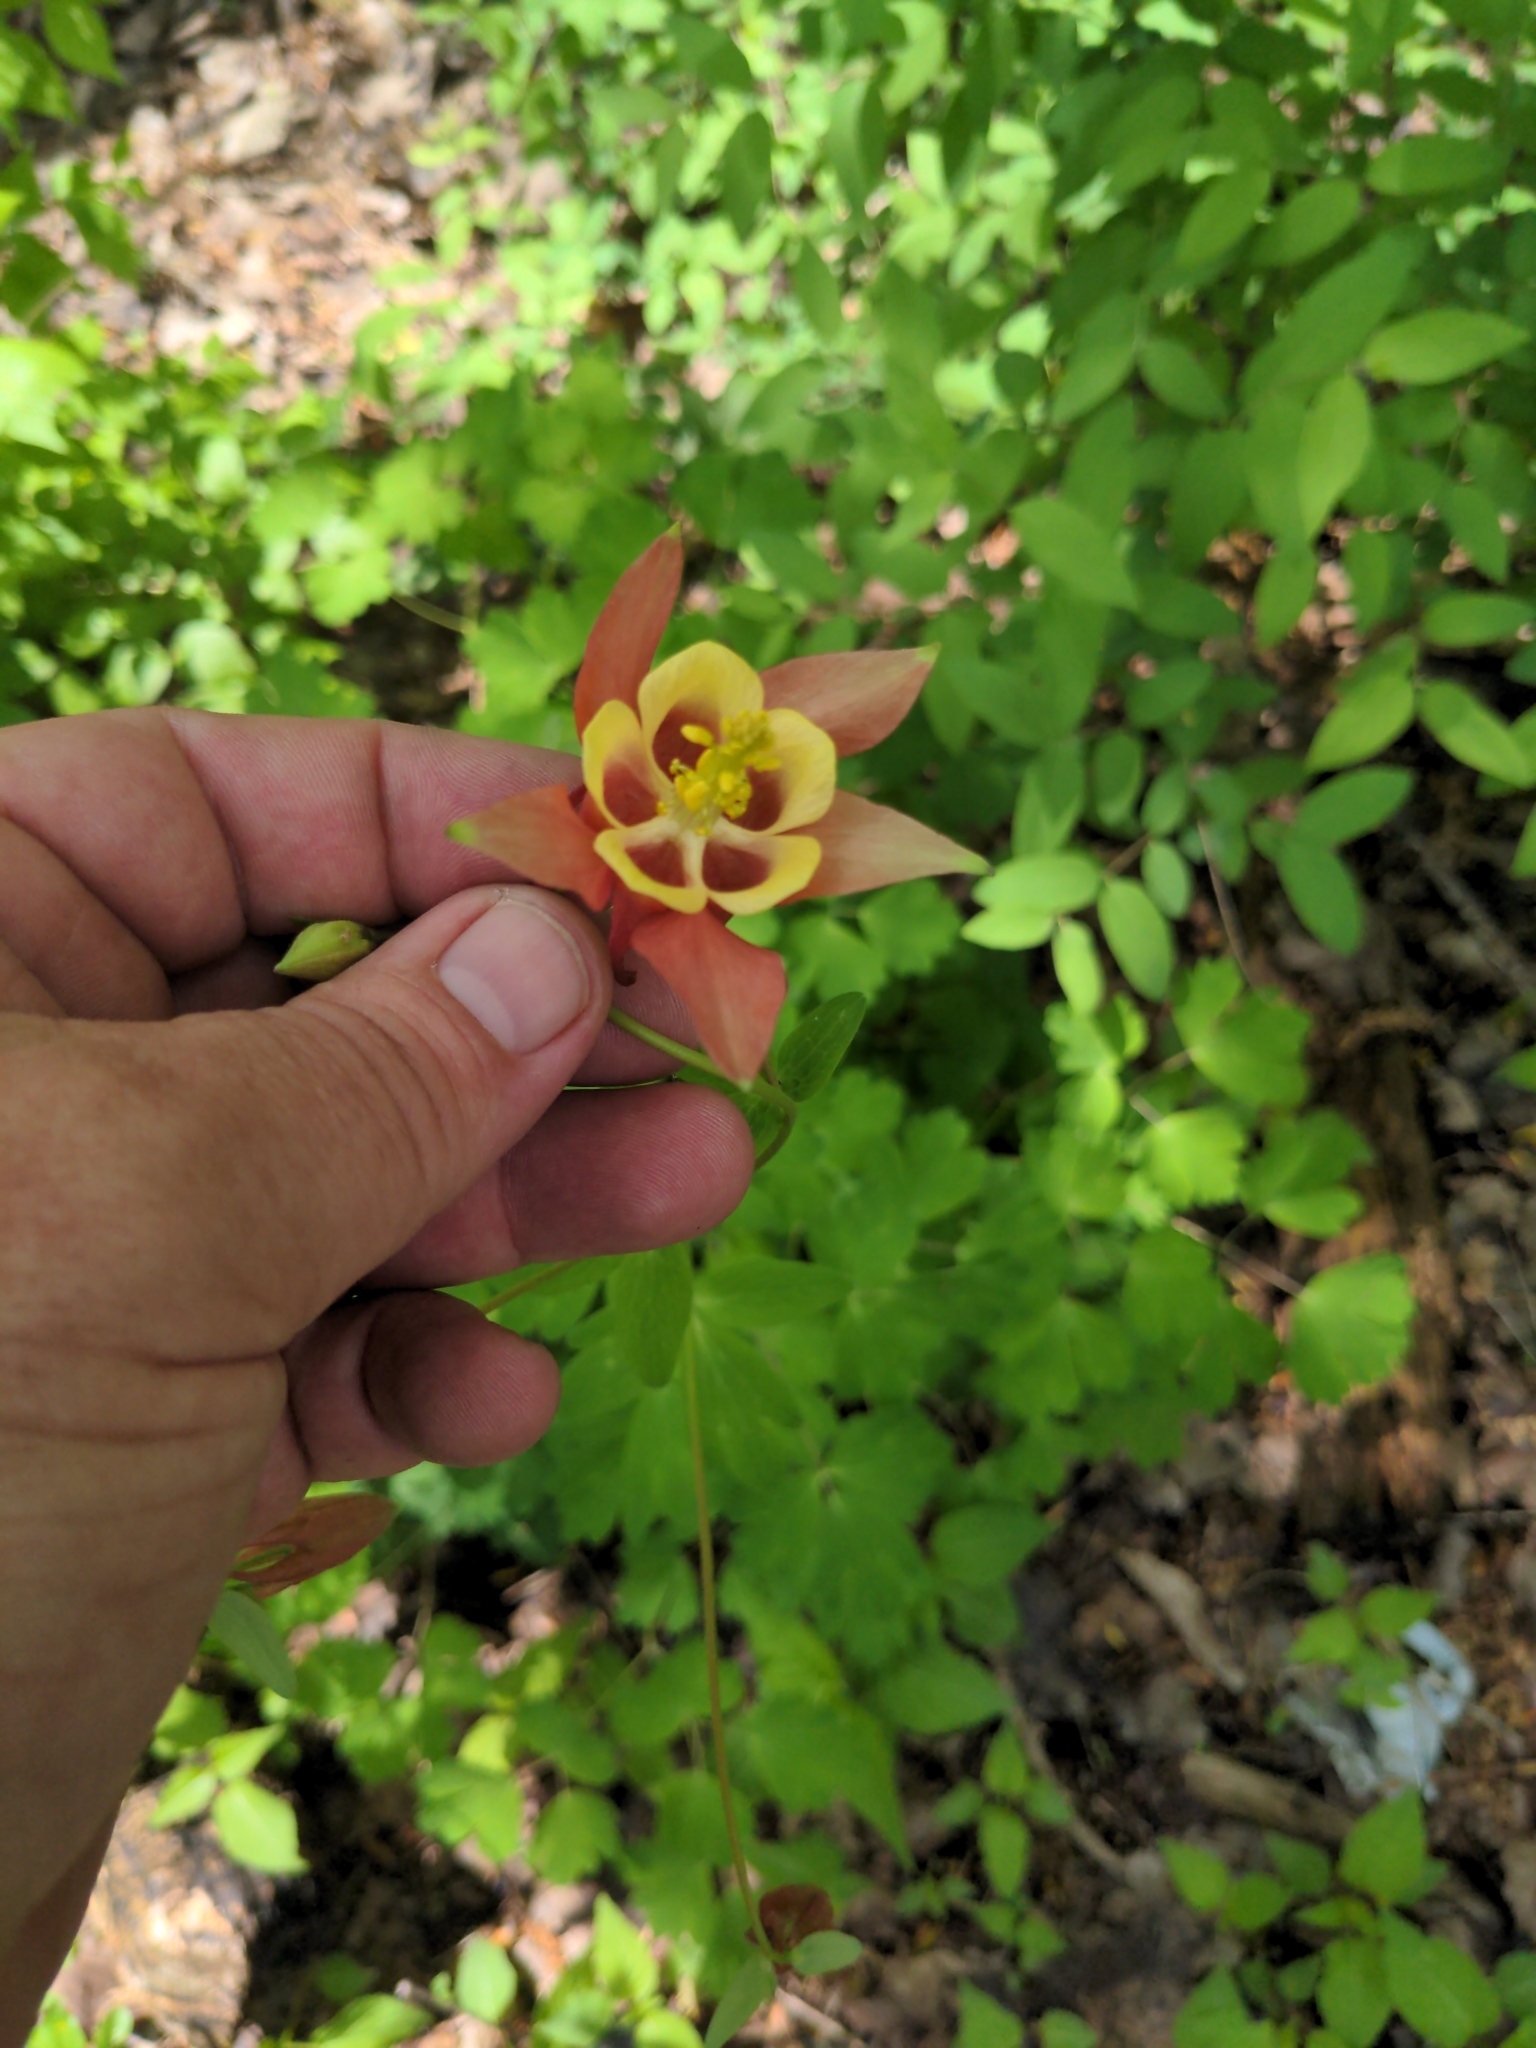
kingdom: Plantae
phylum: Tracheophyta
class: Magnoliopsida
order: Ranunculales
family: Ranunculaceae
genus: Aquilegia
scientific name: Aquilegia canadensis
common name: American columbine
